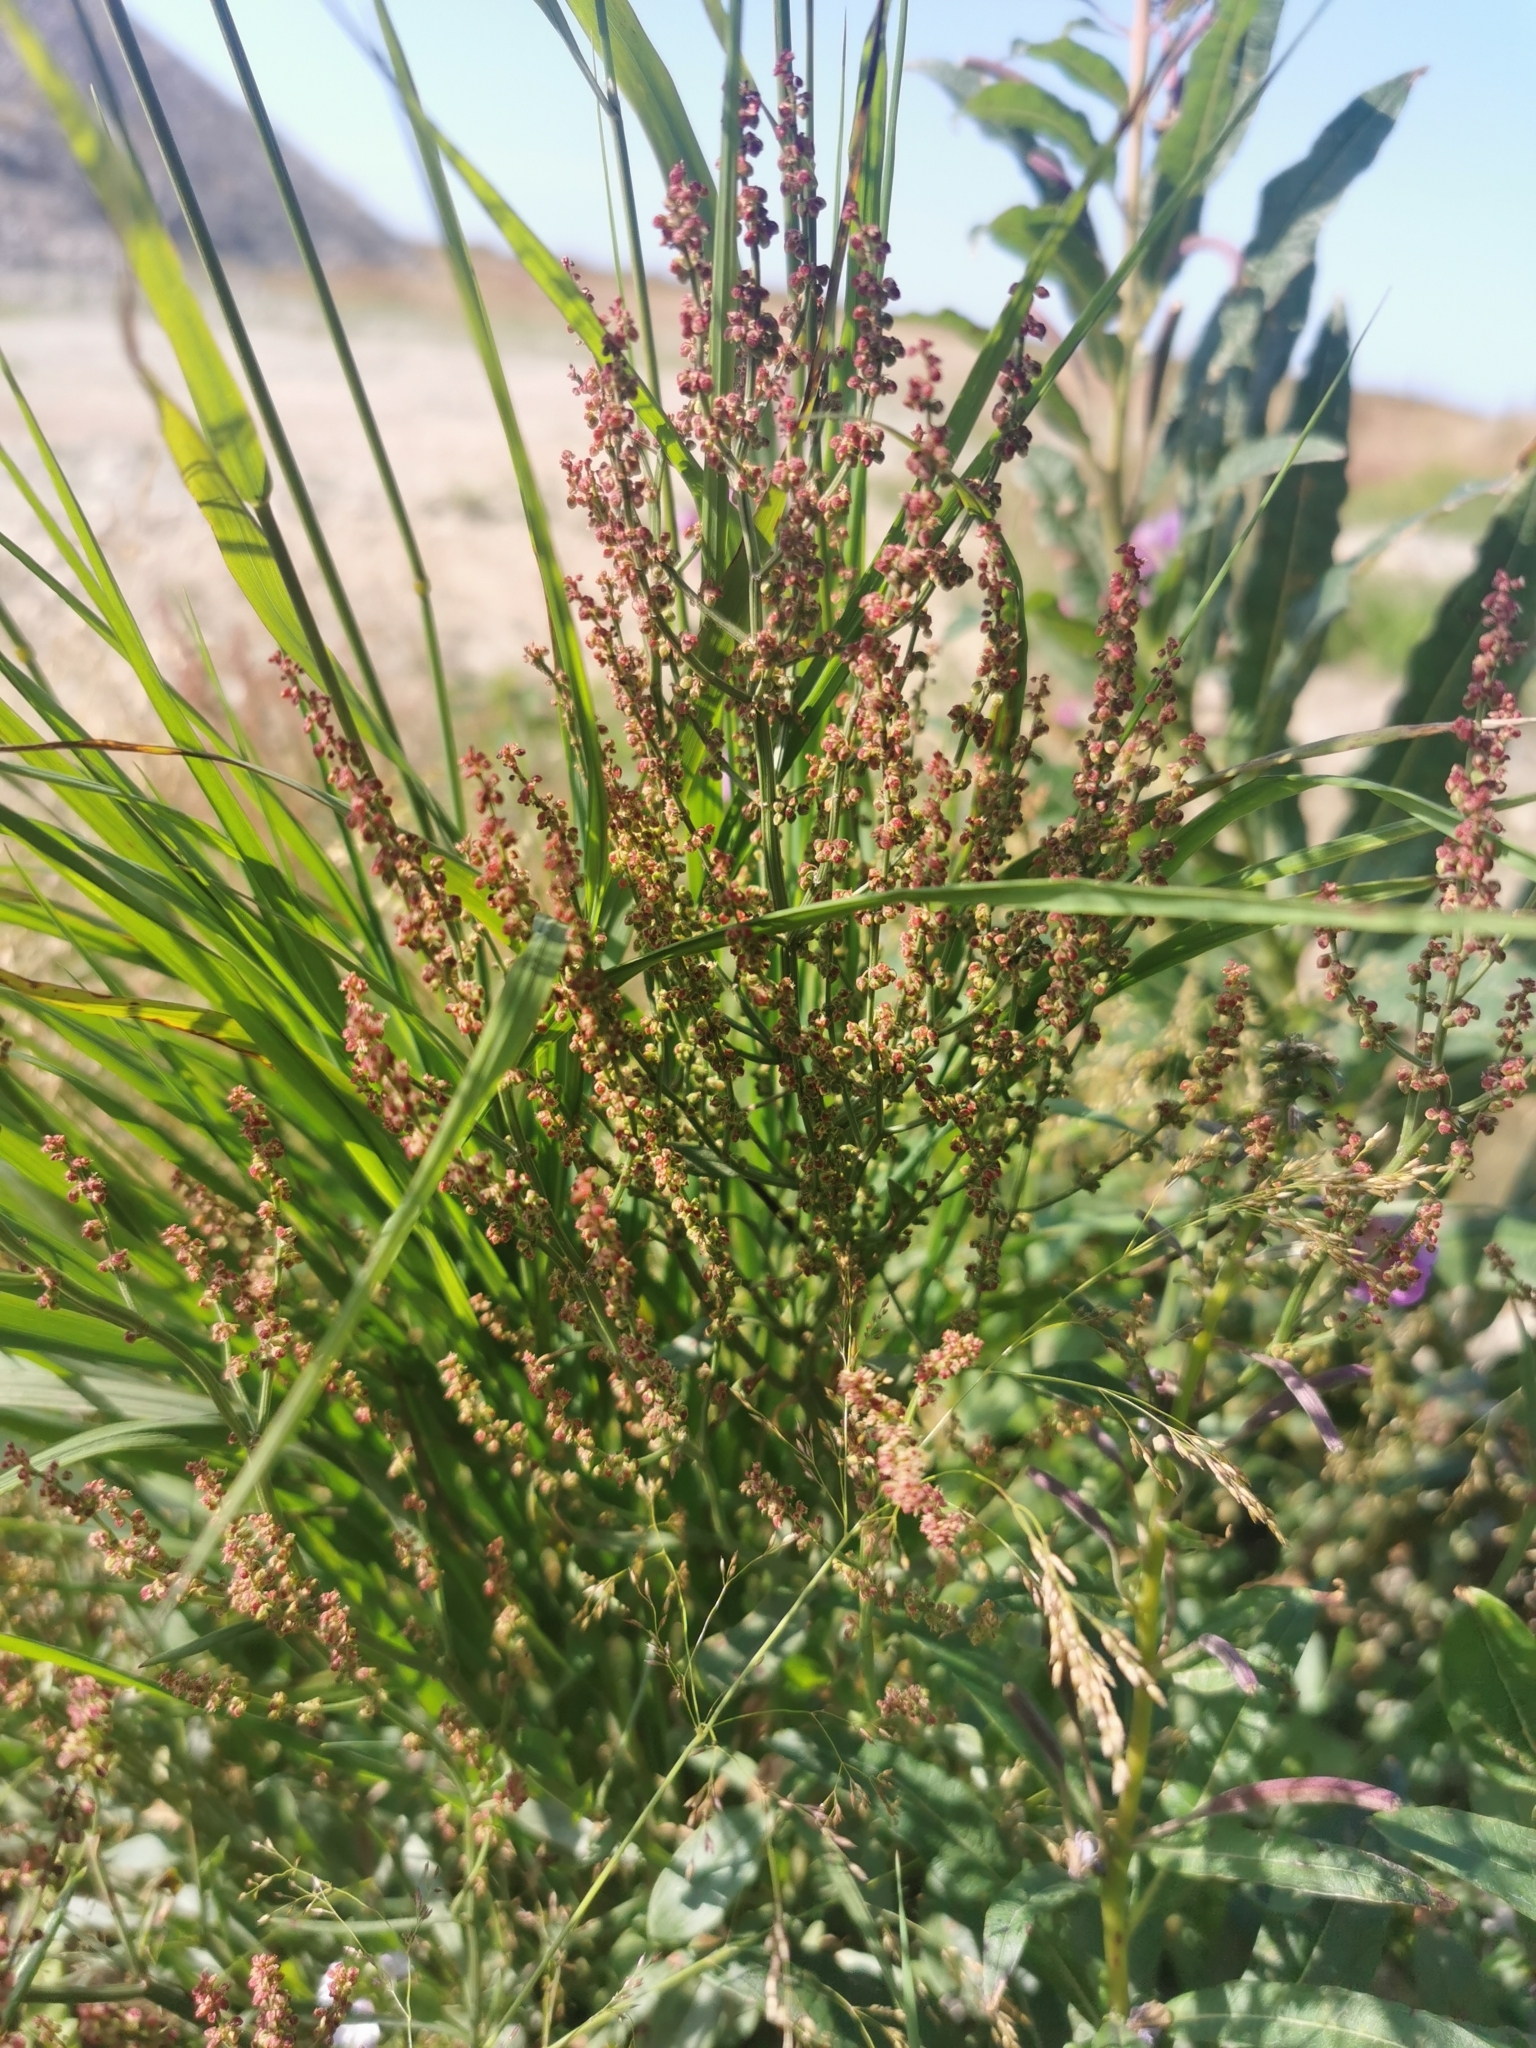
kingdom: Plantae
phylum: Tracheophyta
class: Magnoliopsida
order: Caryophyllales
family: Polygonaceae
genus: Rumex
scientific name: Rumex acetosella
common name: Common sheep sorrel
